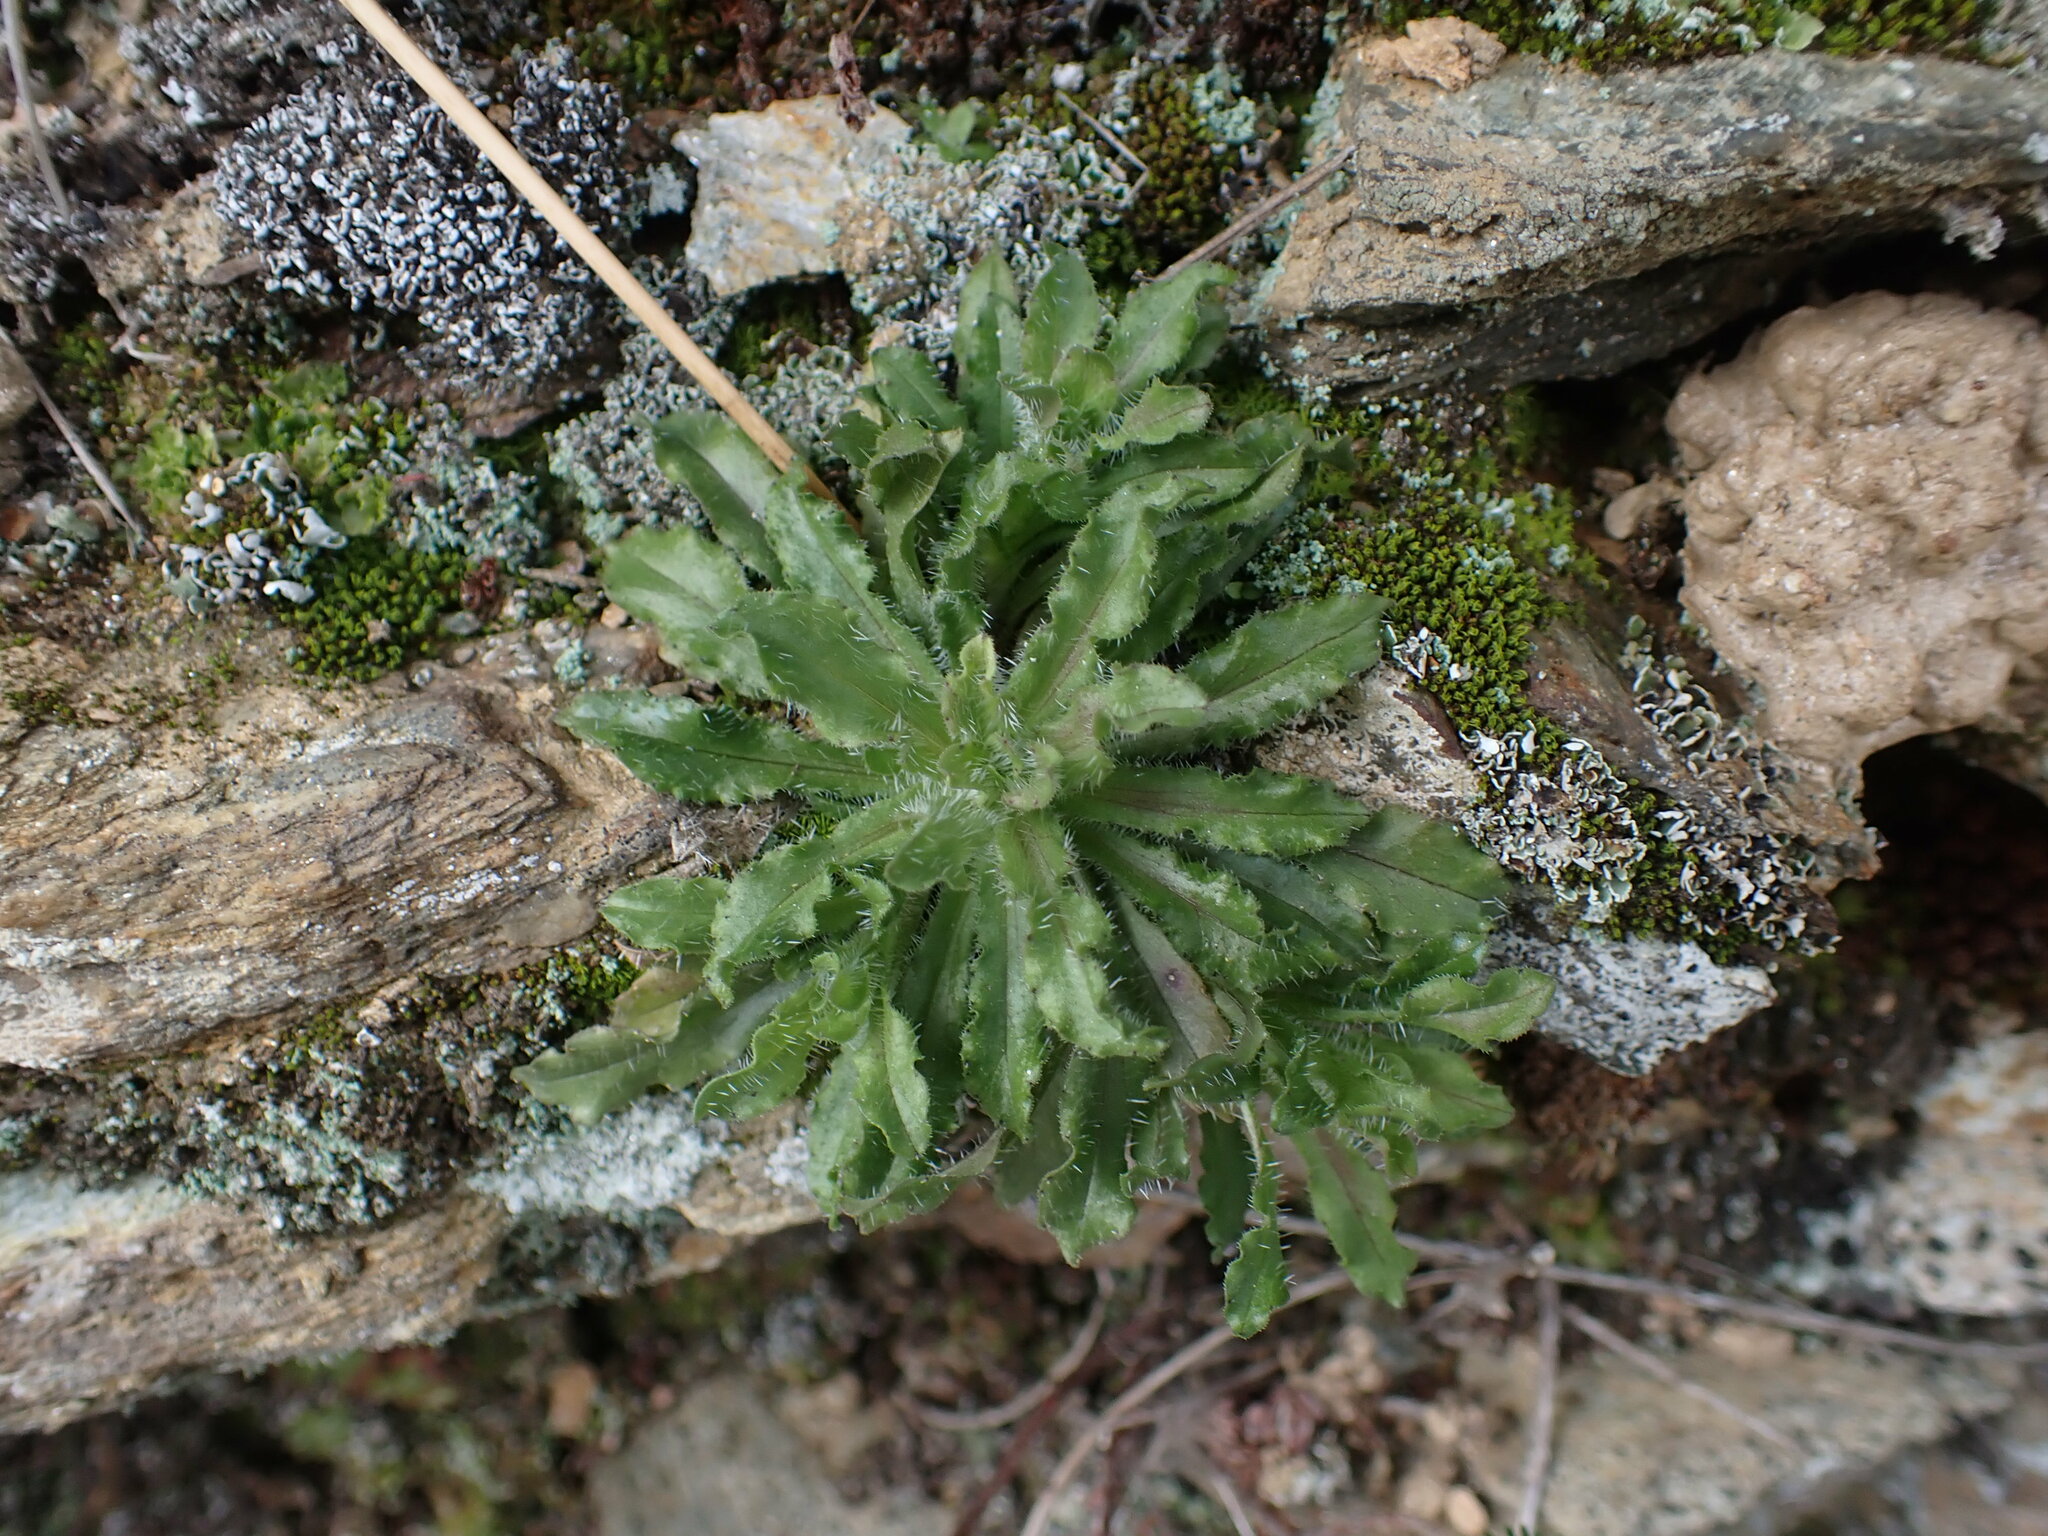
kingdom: Plantae
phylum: Tracheophyta
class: Magnoliopsida
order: Asterales
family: Campanulaceae
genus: Jasione
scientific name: Jasione montana
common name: Sheep's-bit
